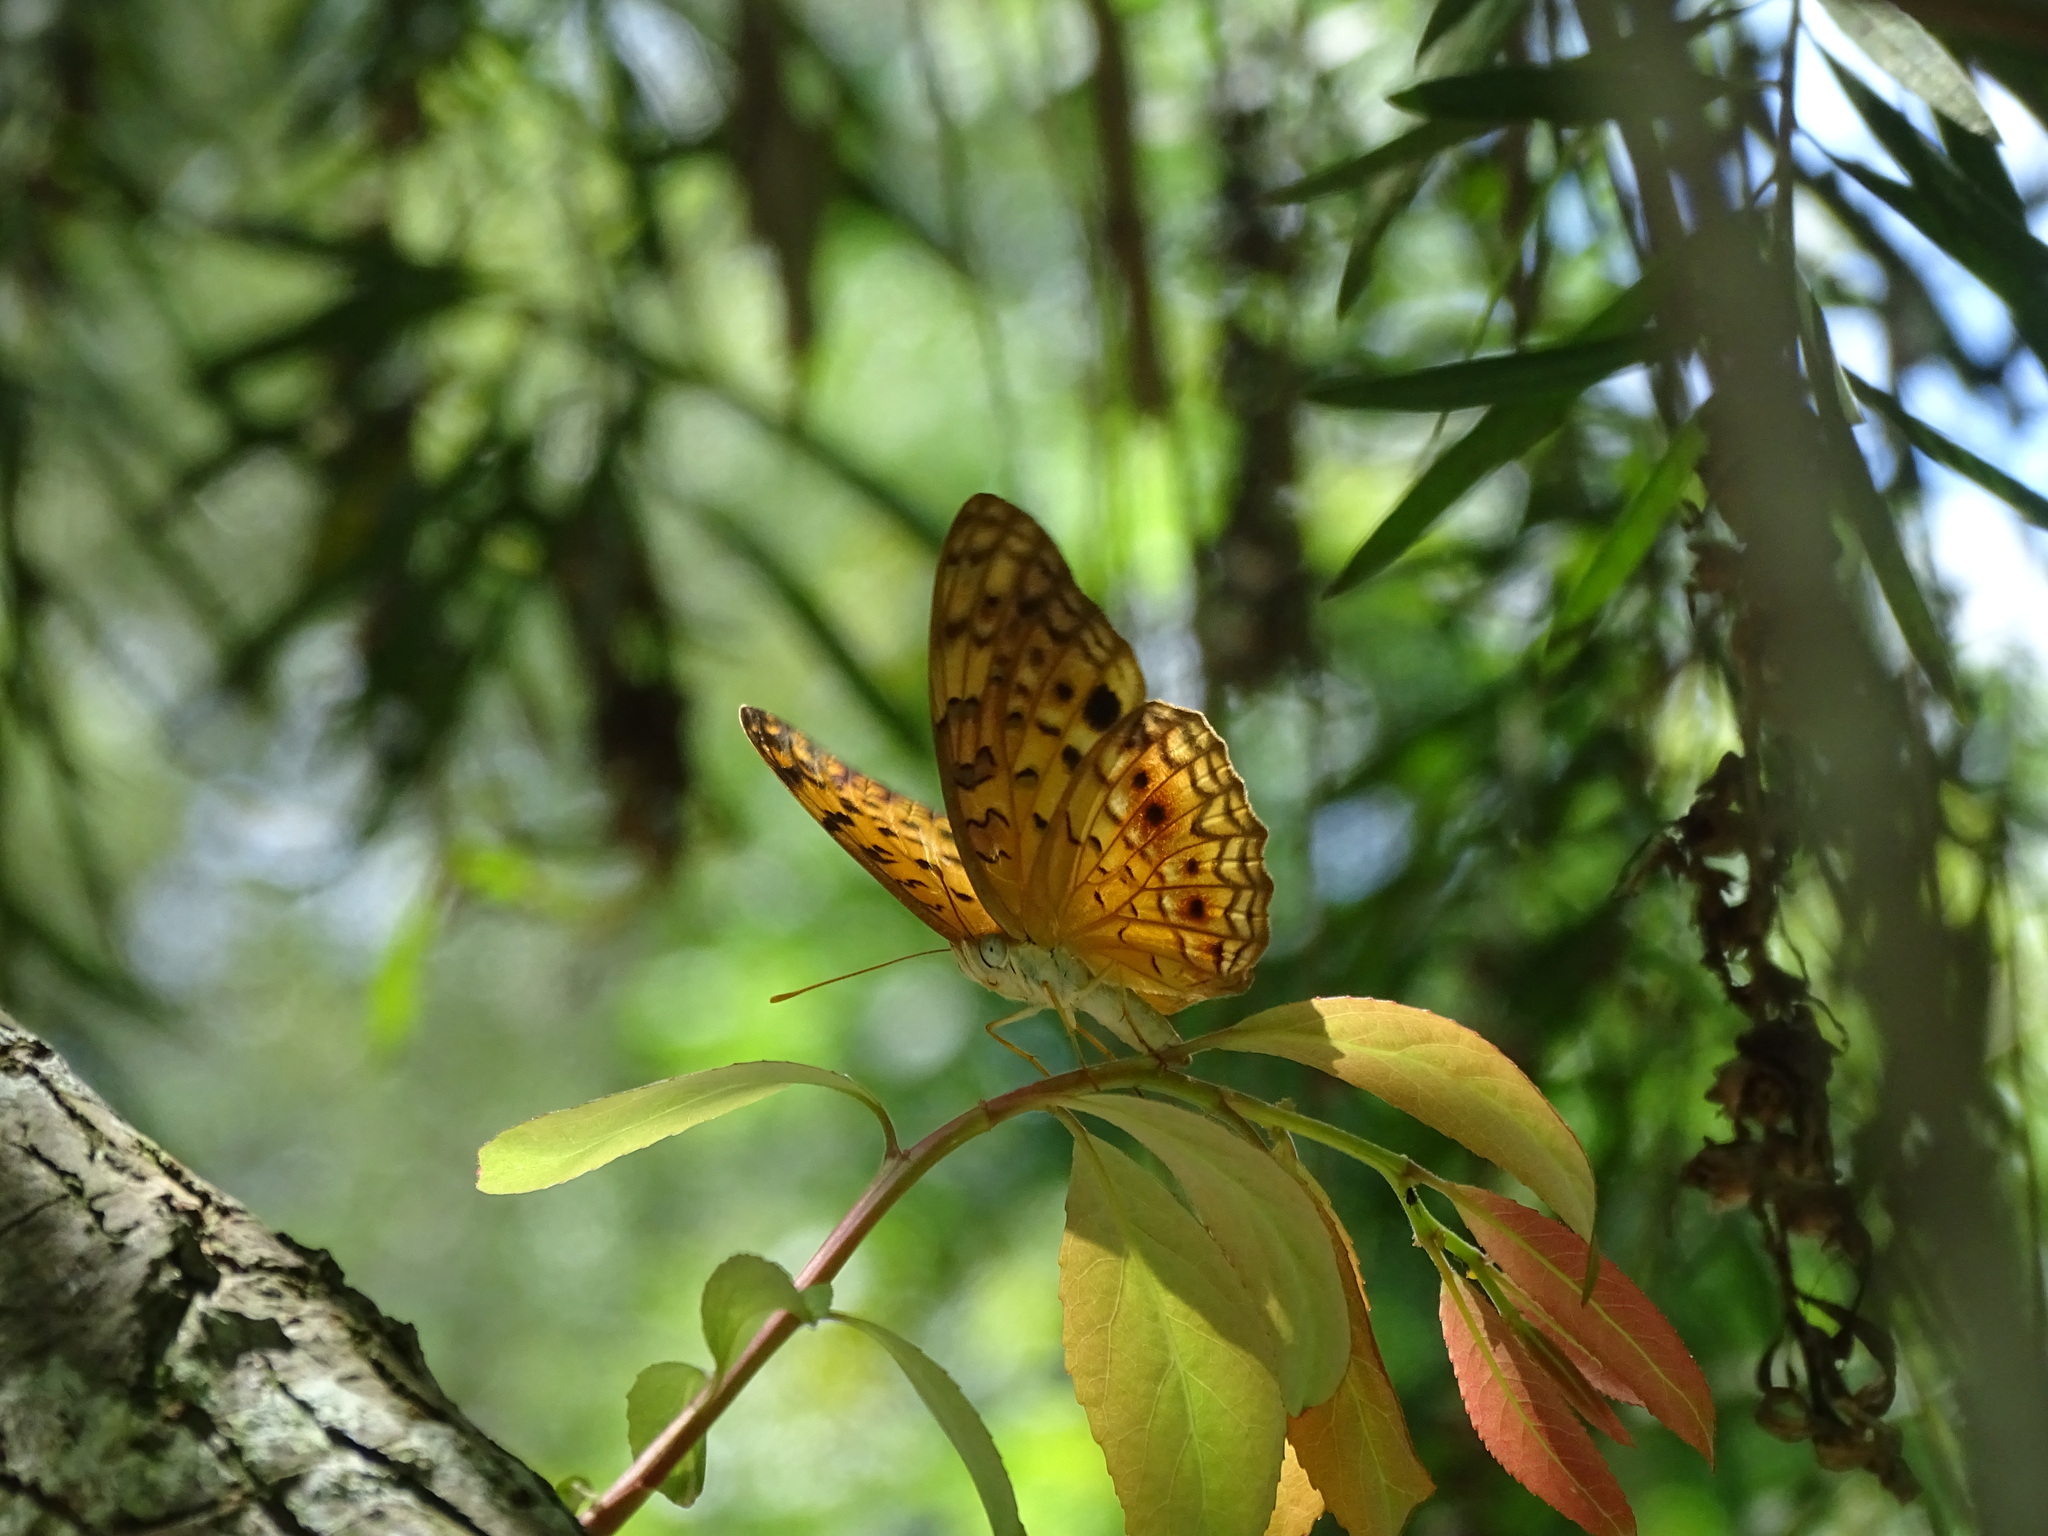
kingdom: Animalia
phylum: Arthropoda
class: Insecta
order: Lepidoptera
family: Nymphalidae
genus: Phalanta
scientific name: Phalanta phalantha
